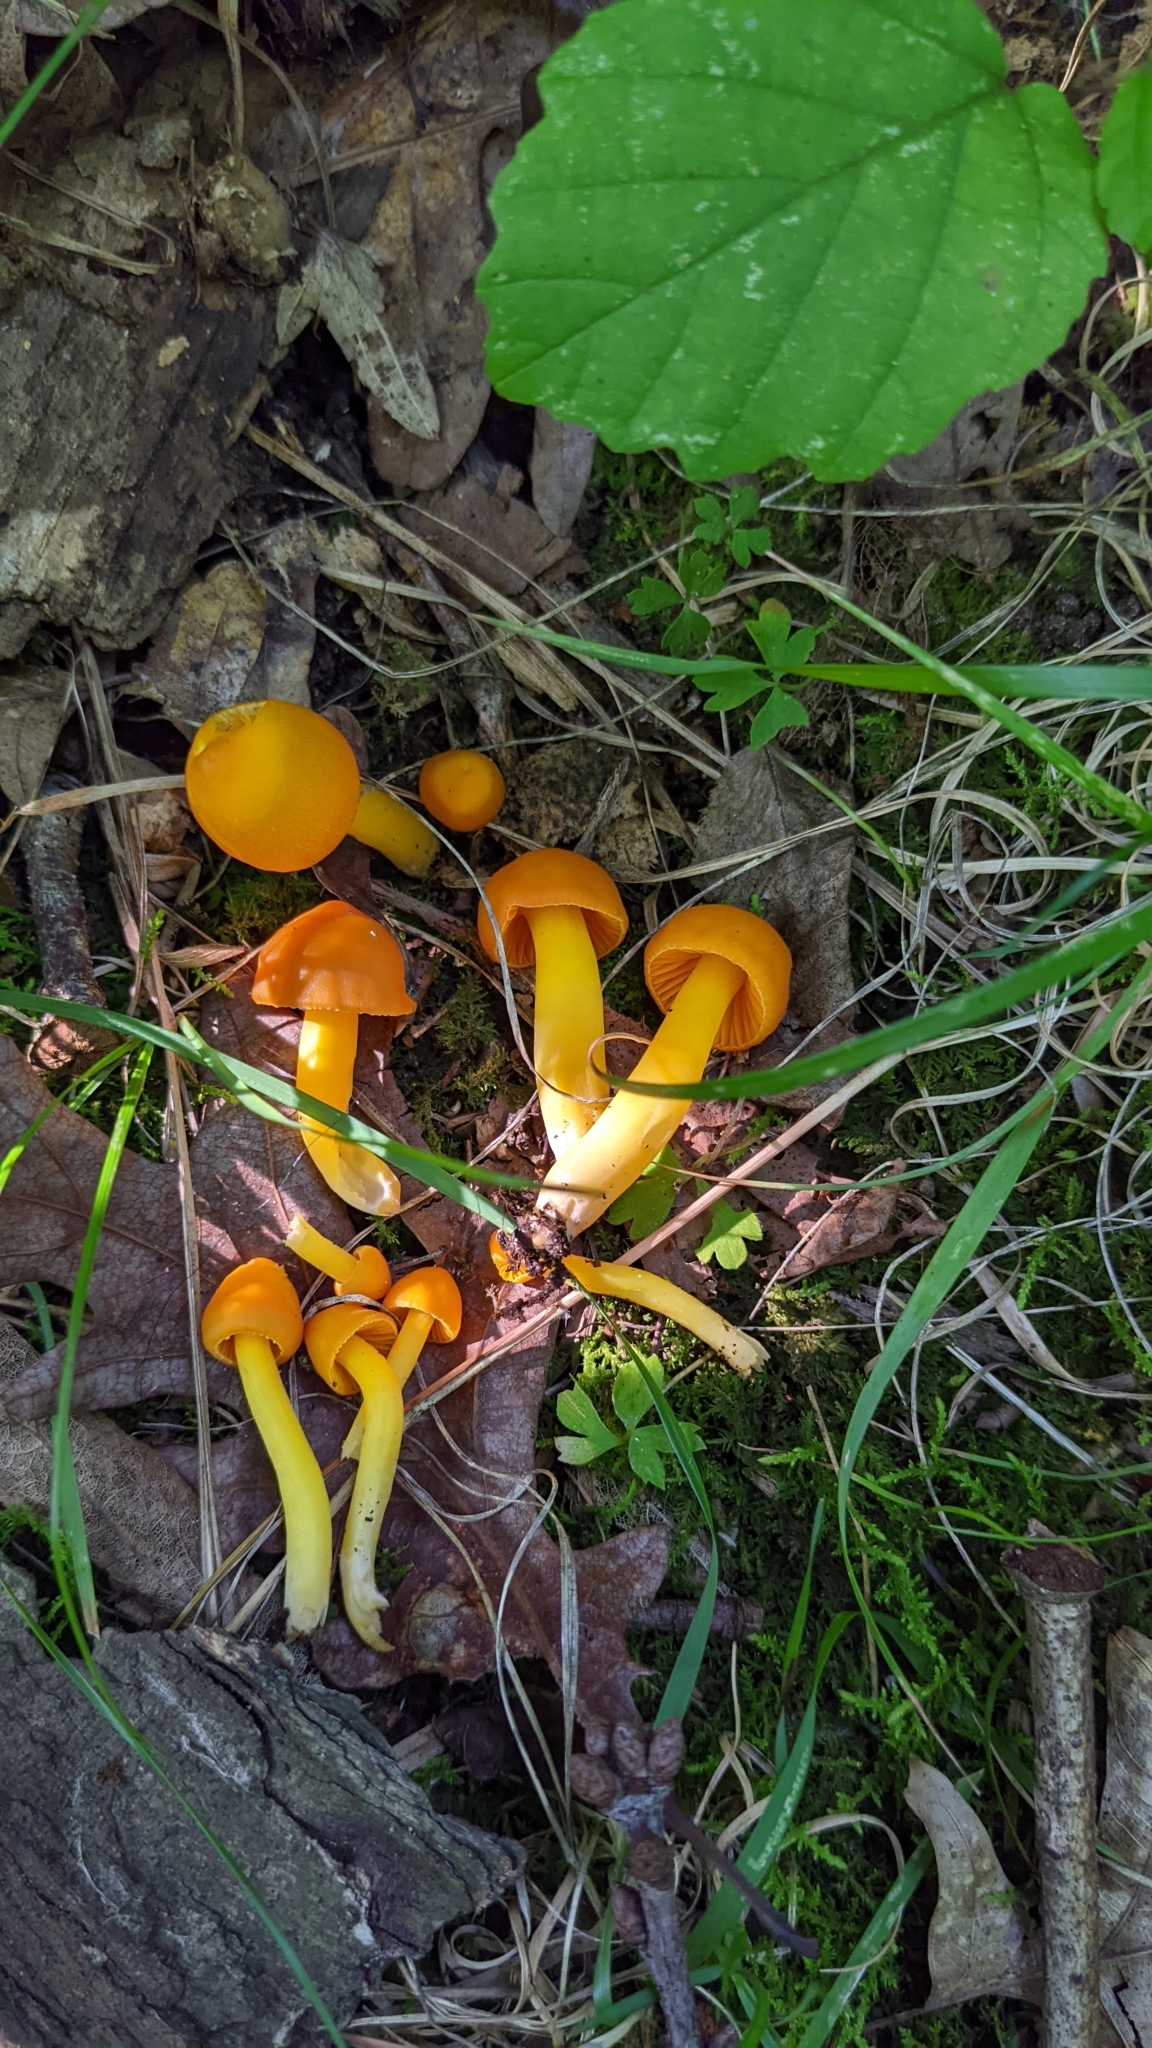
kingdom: Fungi
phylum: Basidiomycota
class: Agaricomycetes
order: Agaricales
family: Hygrophoraceae
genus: Humidicutis
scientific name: Humidicutis marginata
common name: Orange gilled waxcap
